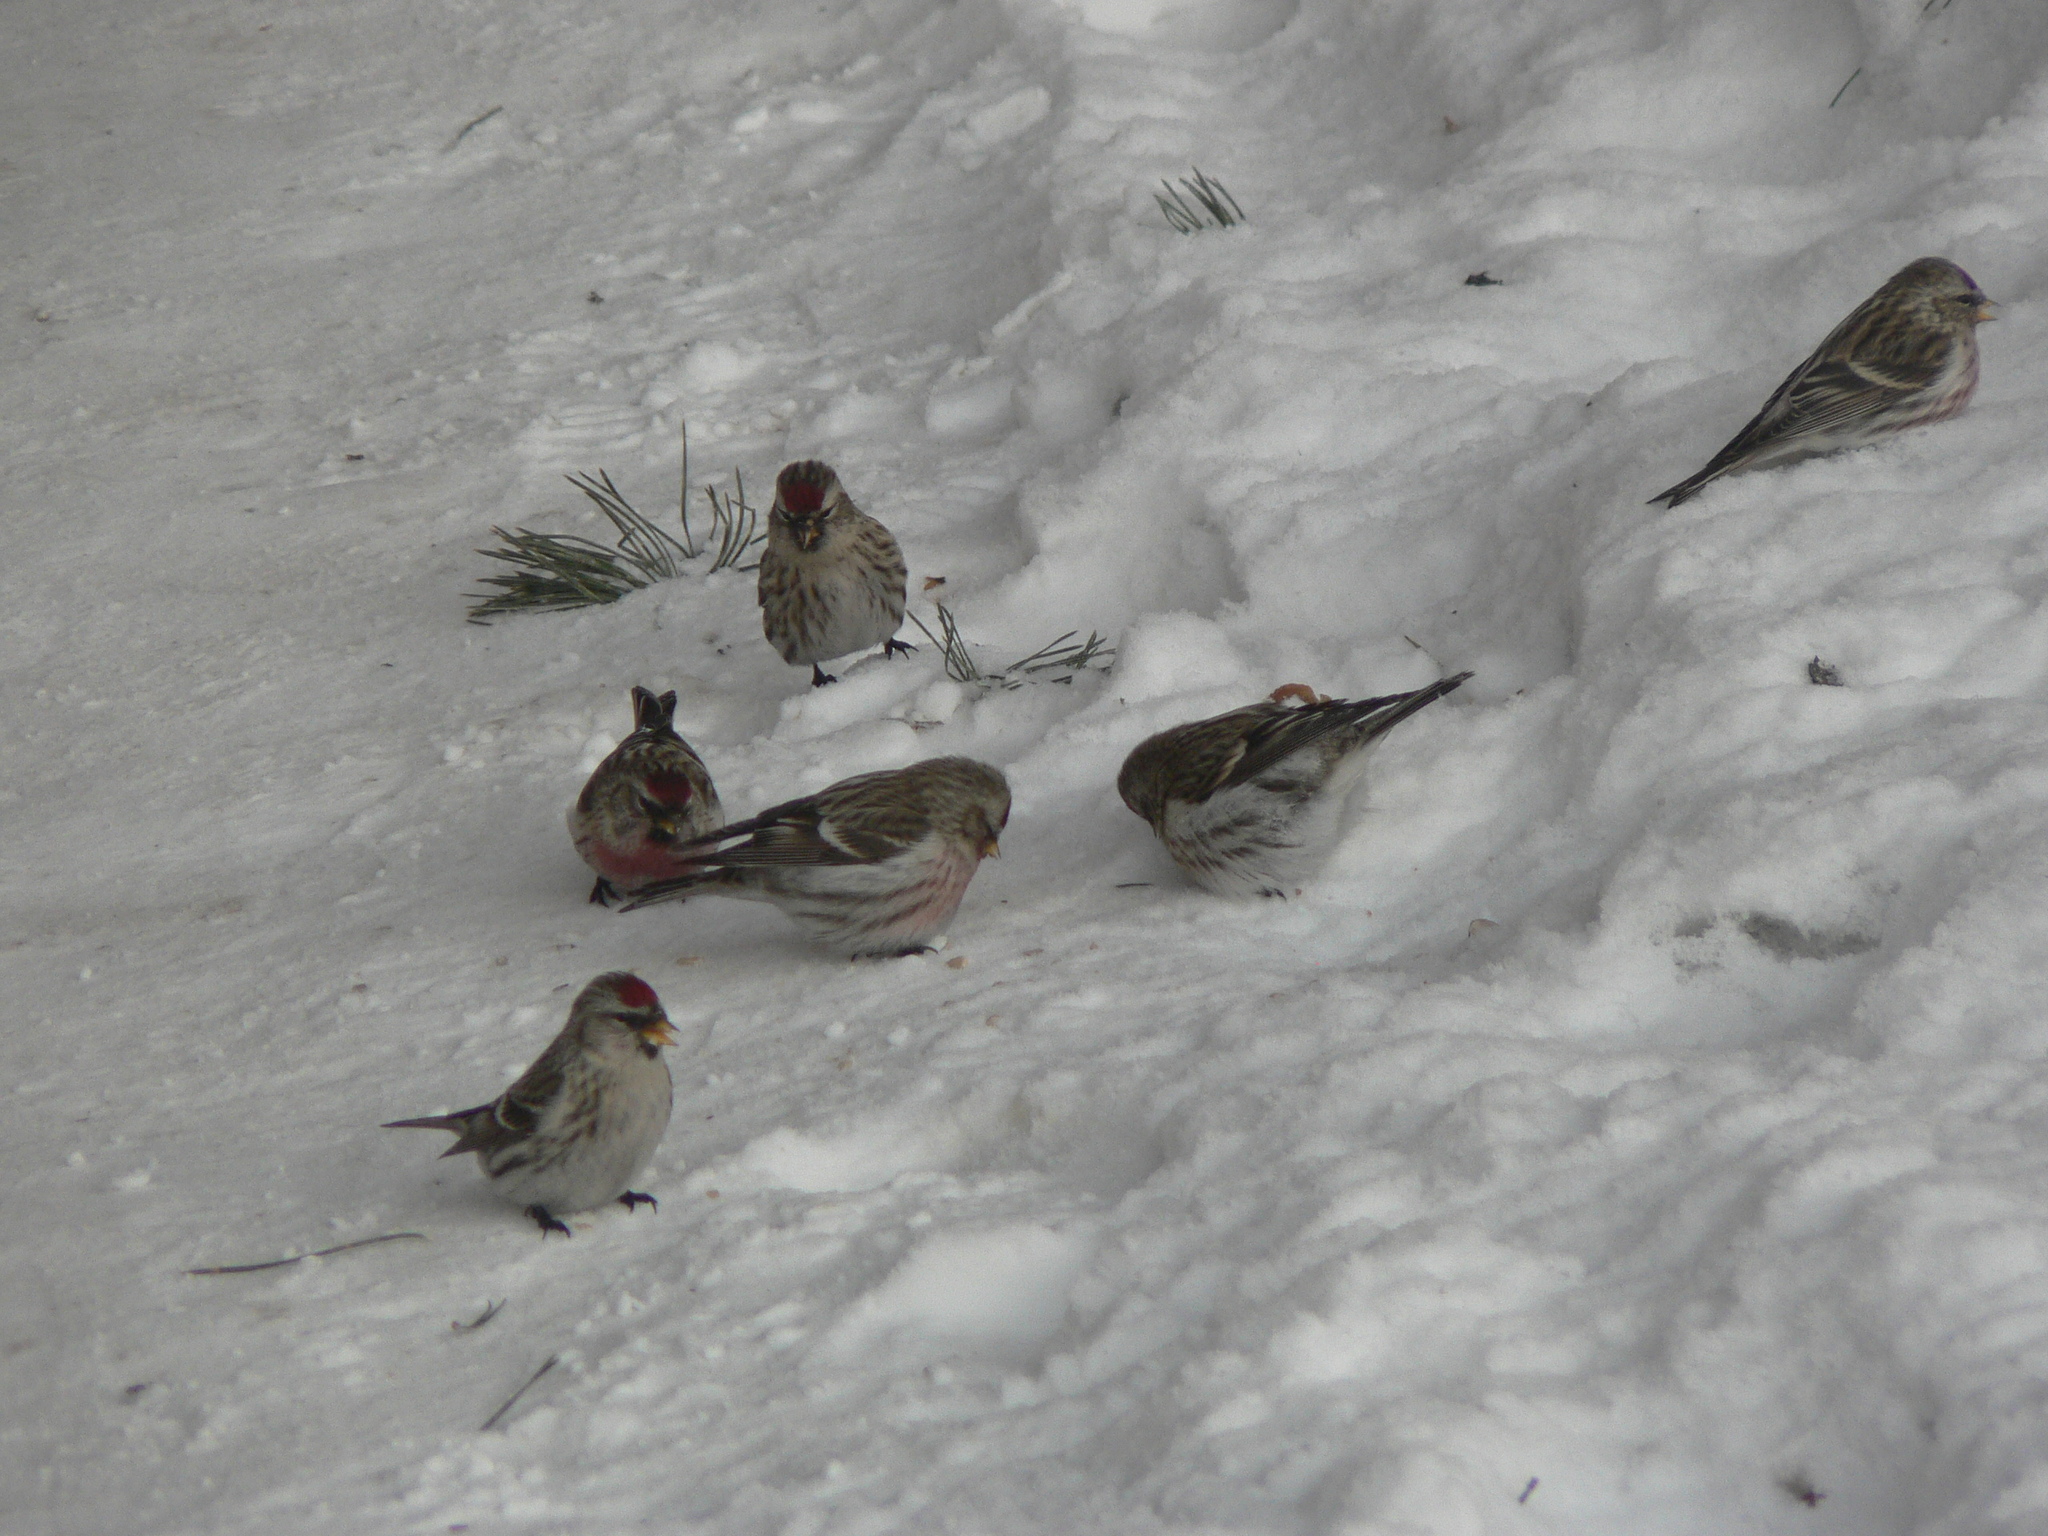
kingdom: Animalia
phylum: Chordata
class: Aves
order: Passeriformes
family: Fringillidae
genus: Acanthis
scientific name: Acanthis flammea
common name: Common redpoll
